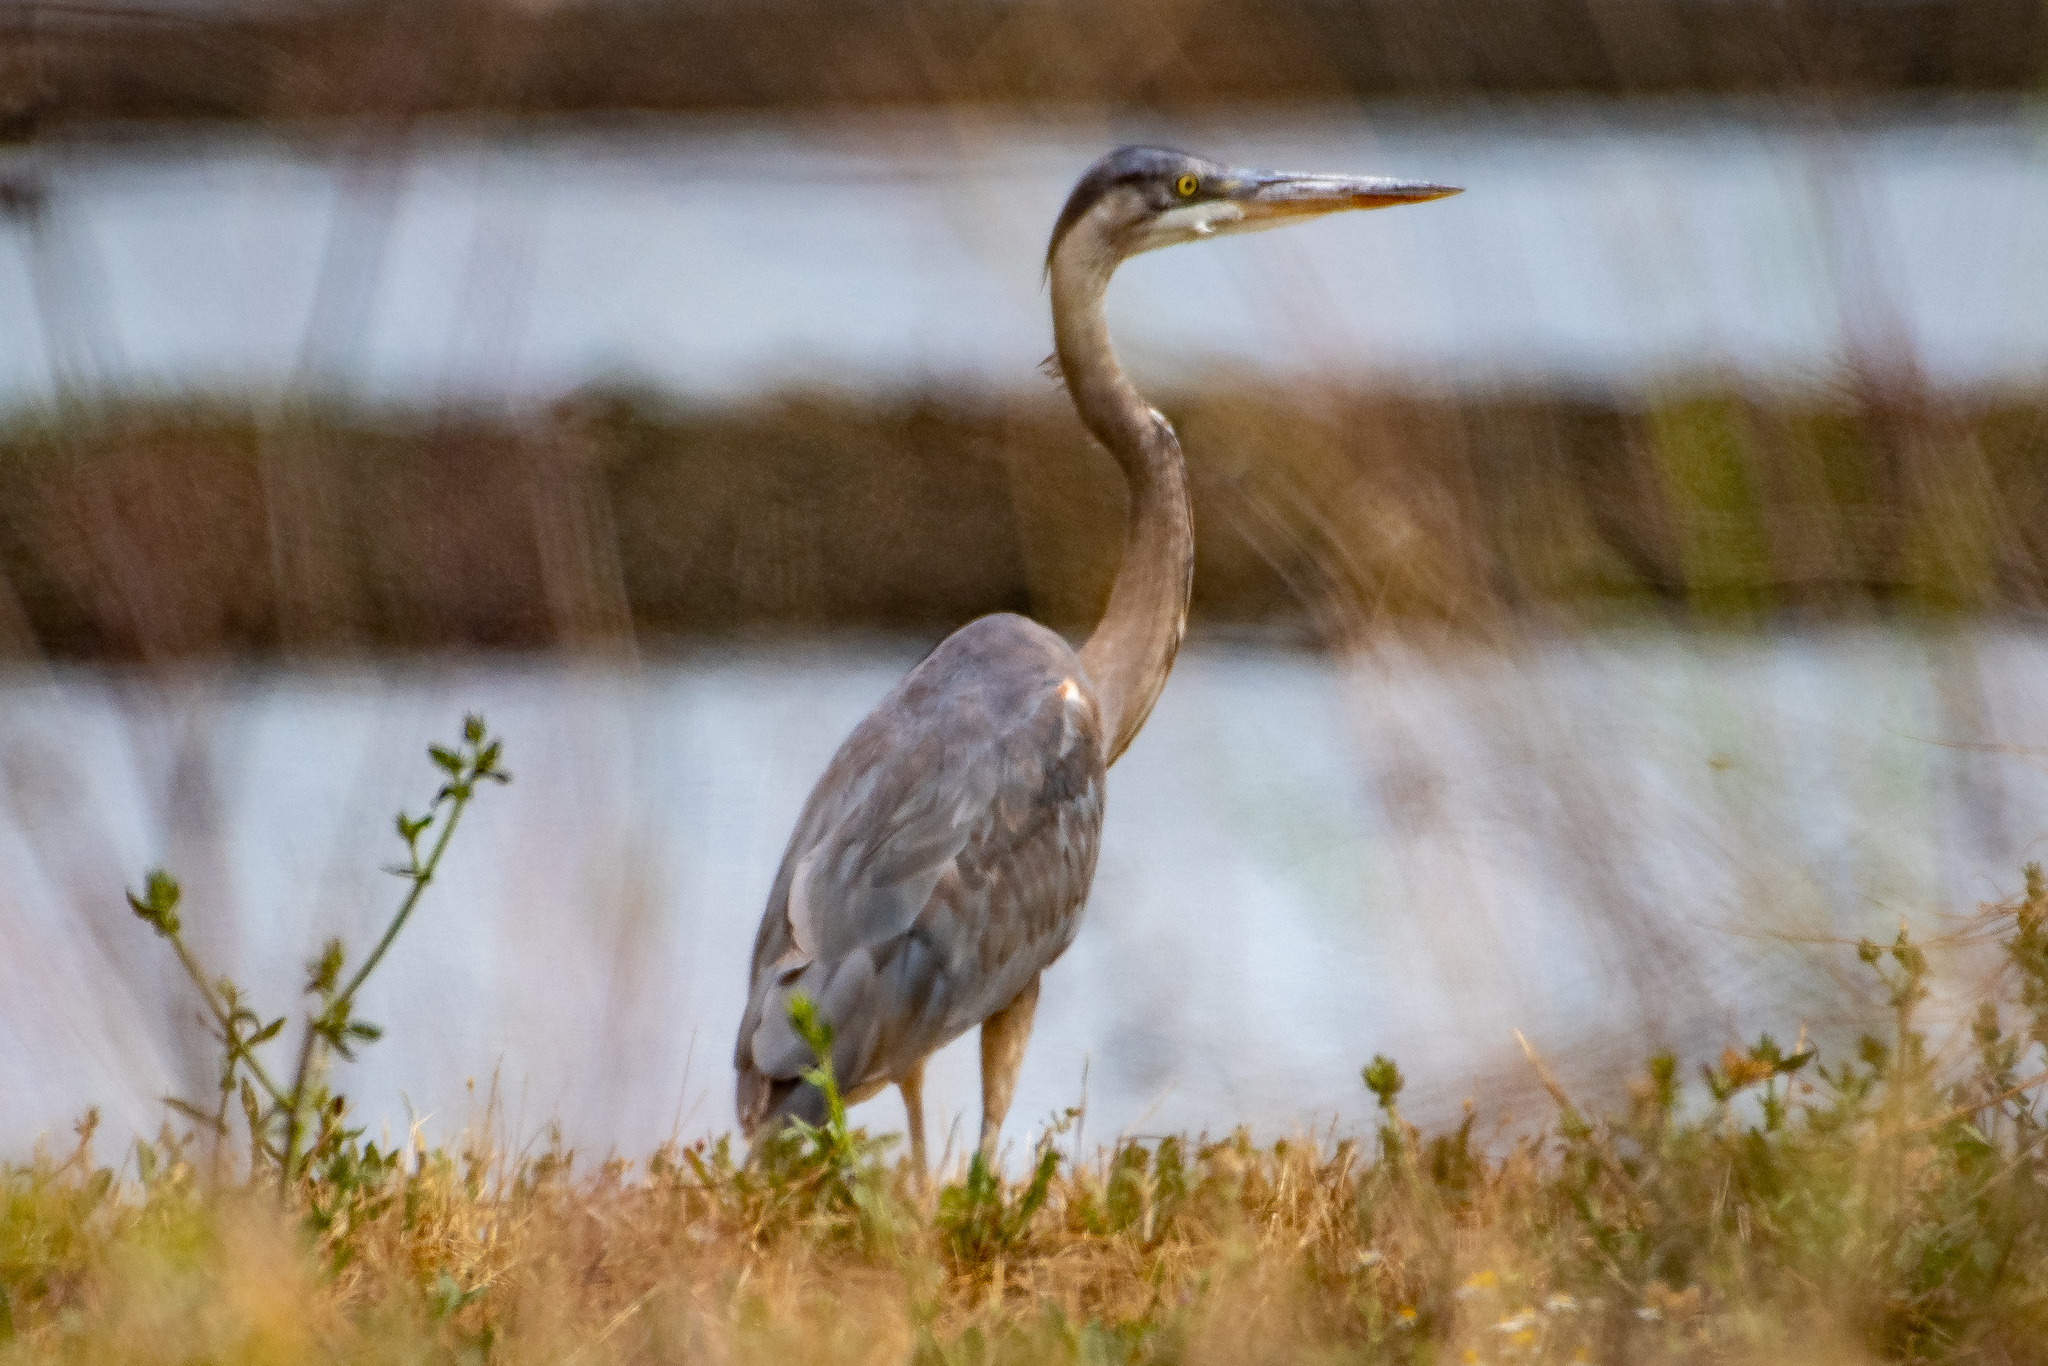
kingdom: Animalia
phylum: Chordata
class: Aves
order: Pelecaniformes
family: Ardeidae
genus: Ardea
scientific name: Ardea herodias
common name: Great blue heron
